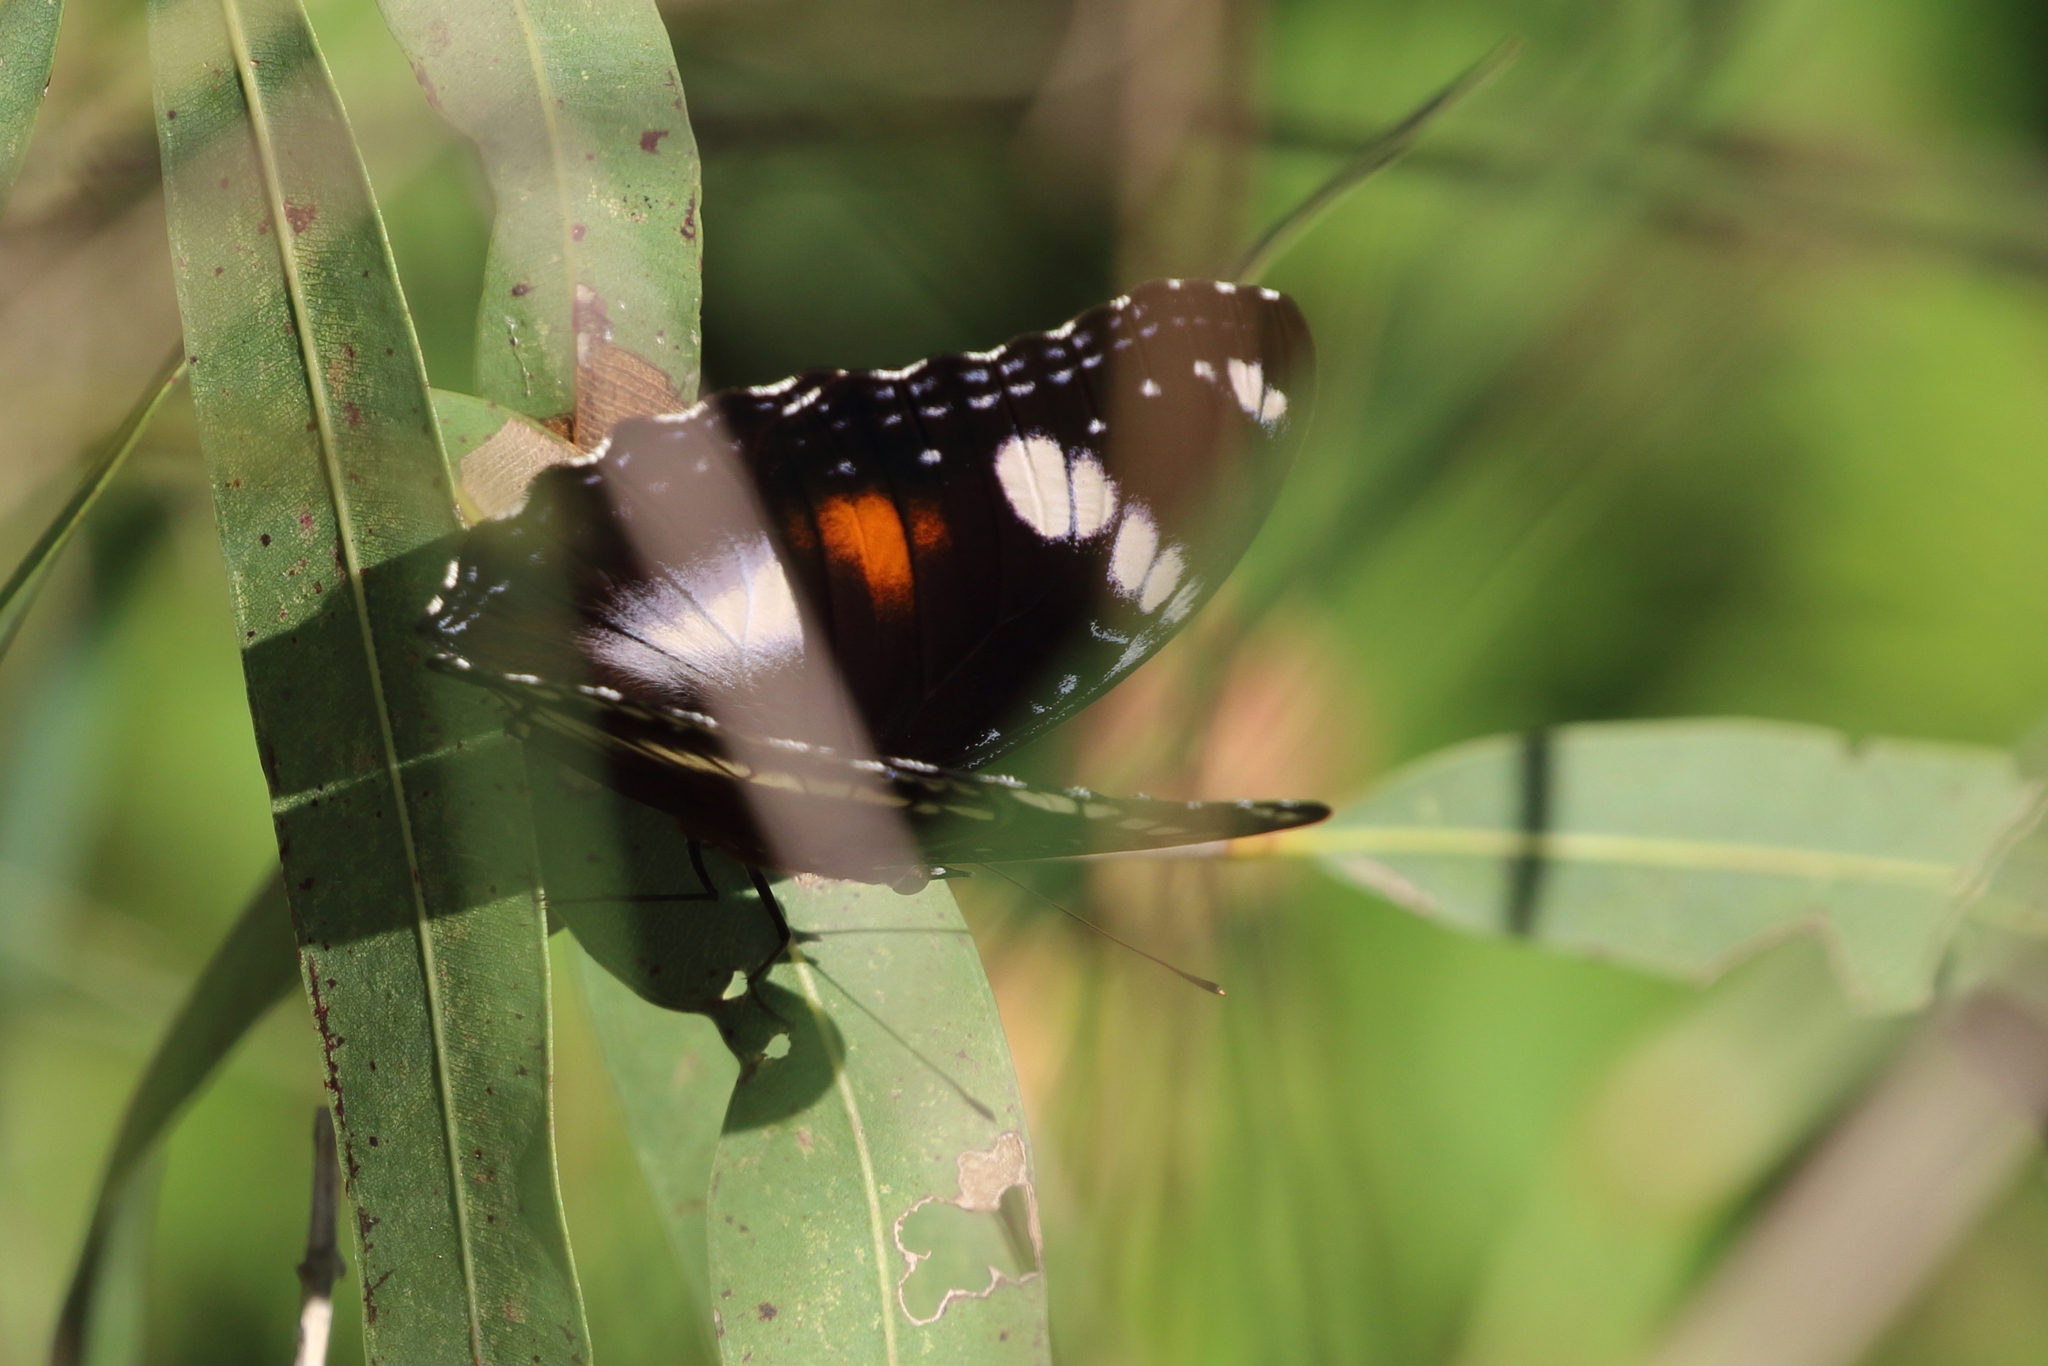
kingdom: Animalia
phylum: Arthropoda
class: Insecta
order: Lepidoptera
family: Nymphalidae
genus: Hypolimnas
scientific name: Hypolimnas bolina
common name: Great eggfly
